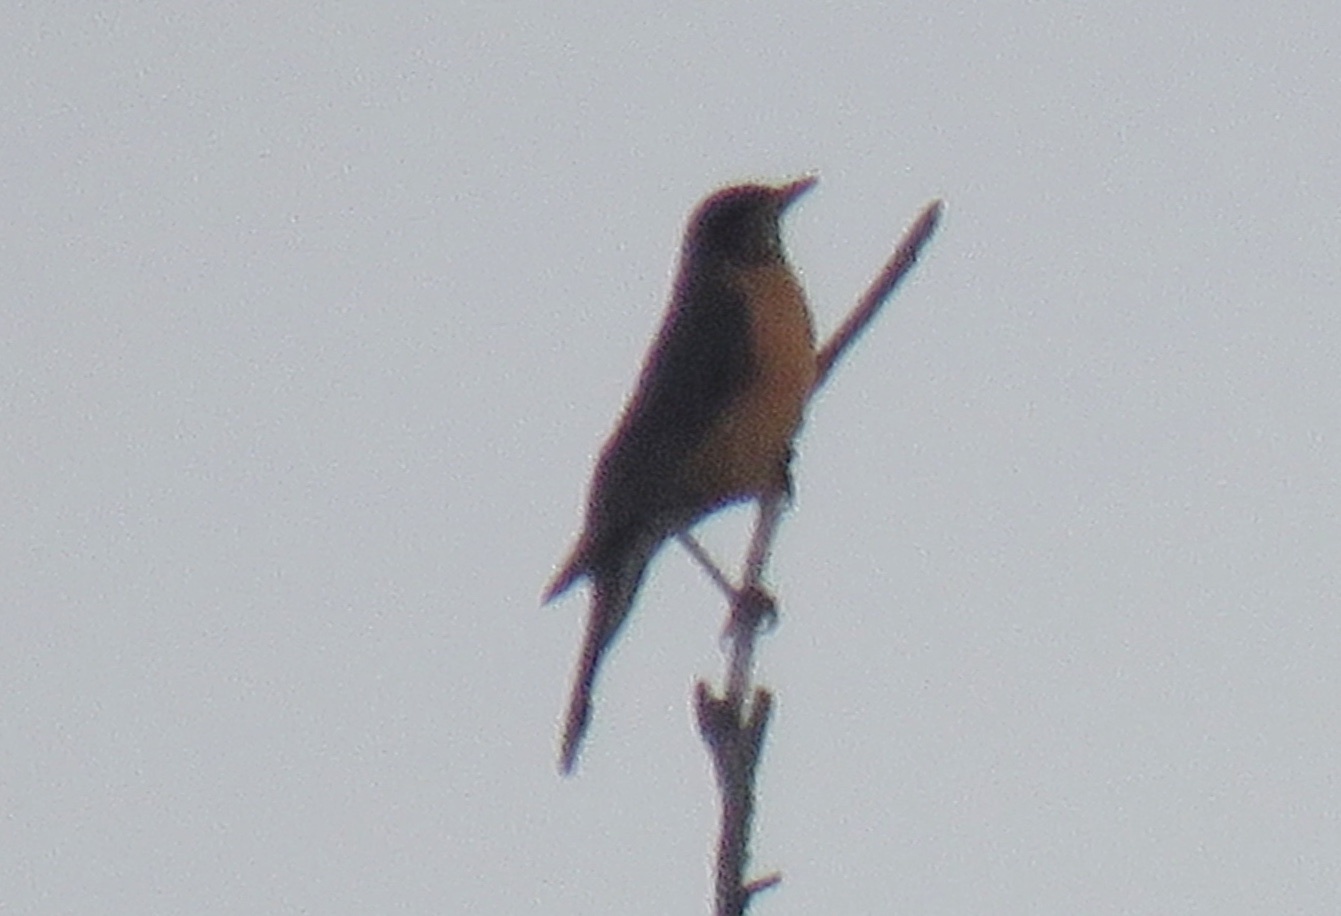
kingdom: Animalia
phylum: Chordata
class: Aves
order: Passeriformes
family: Turdidae
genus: Turdus
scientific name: Turdus migratorius
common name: American robin
